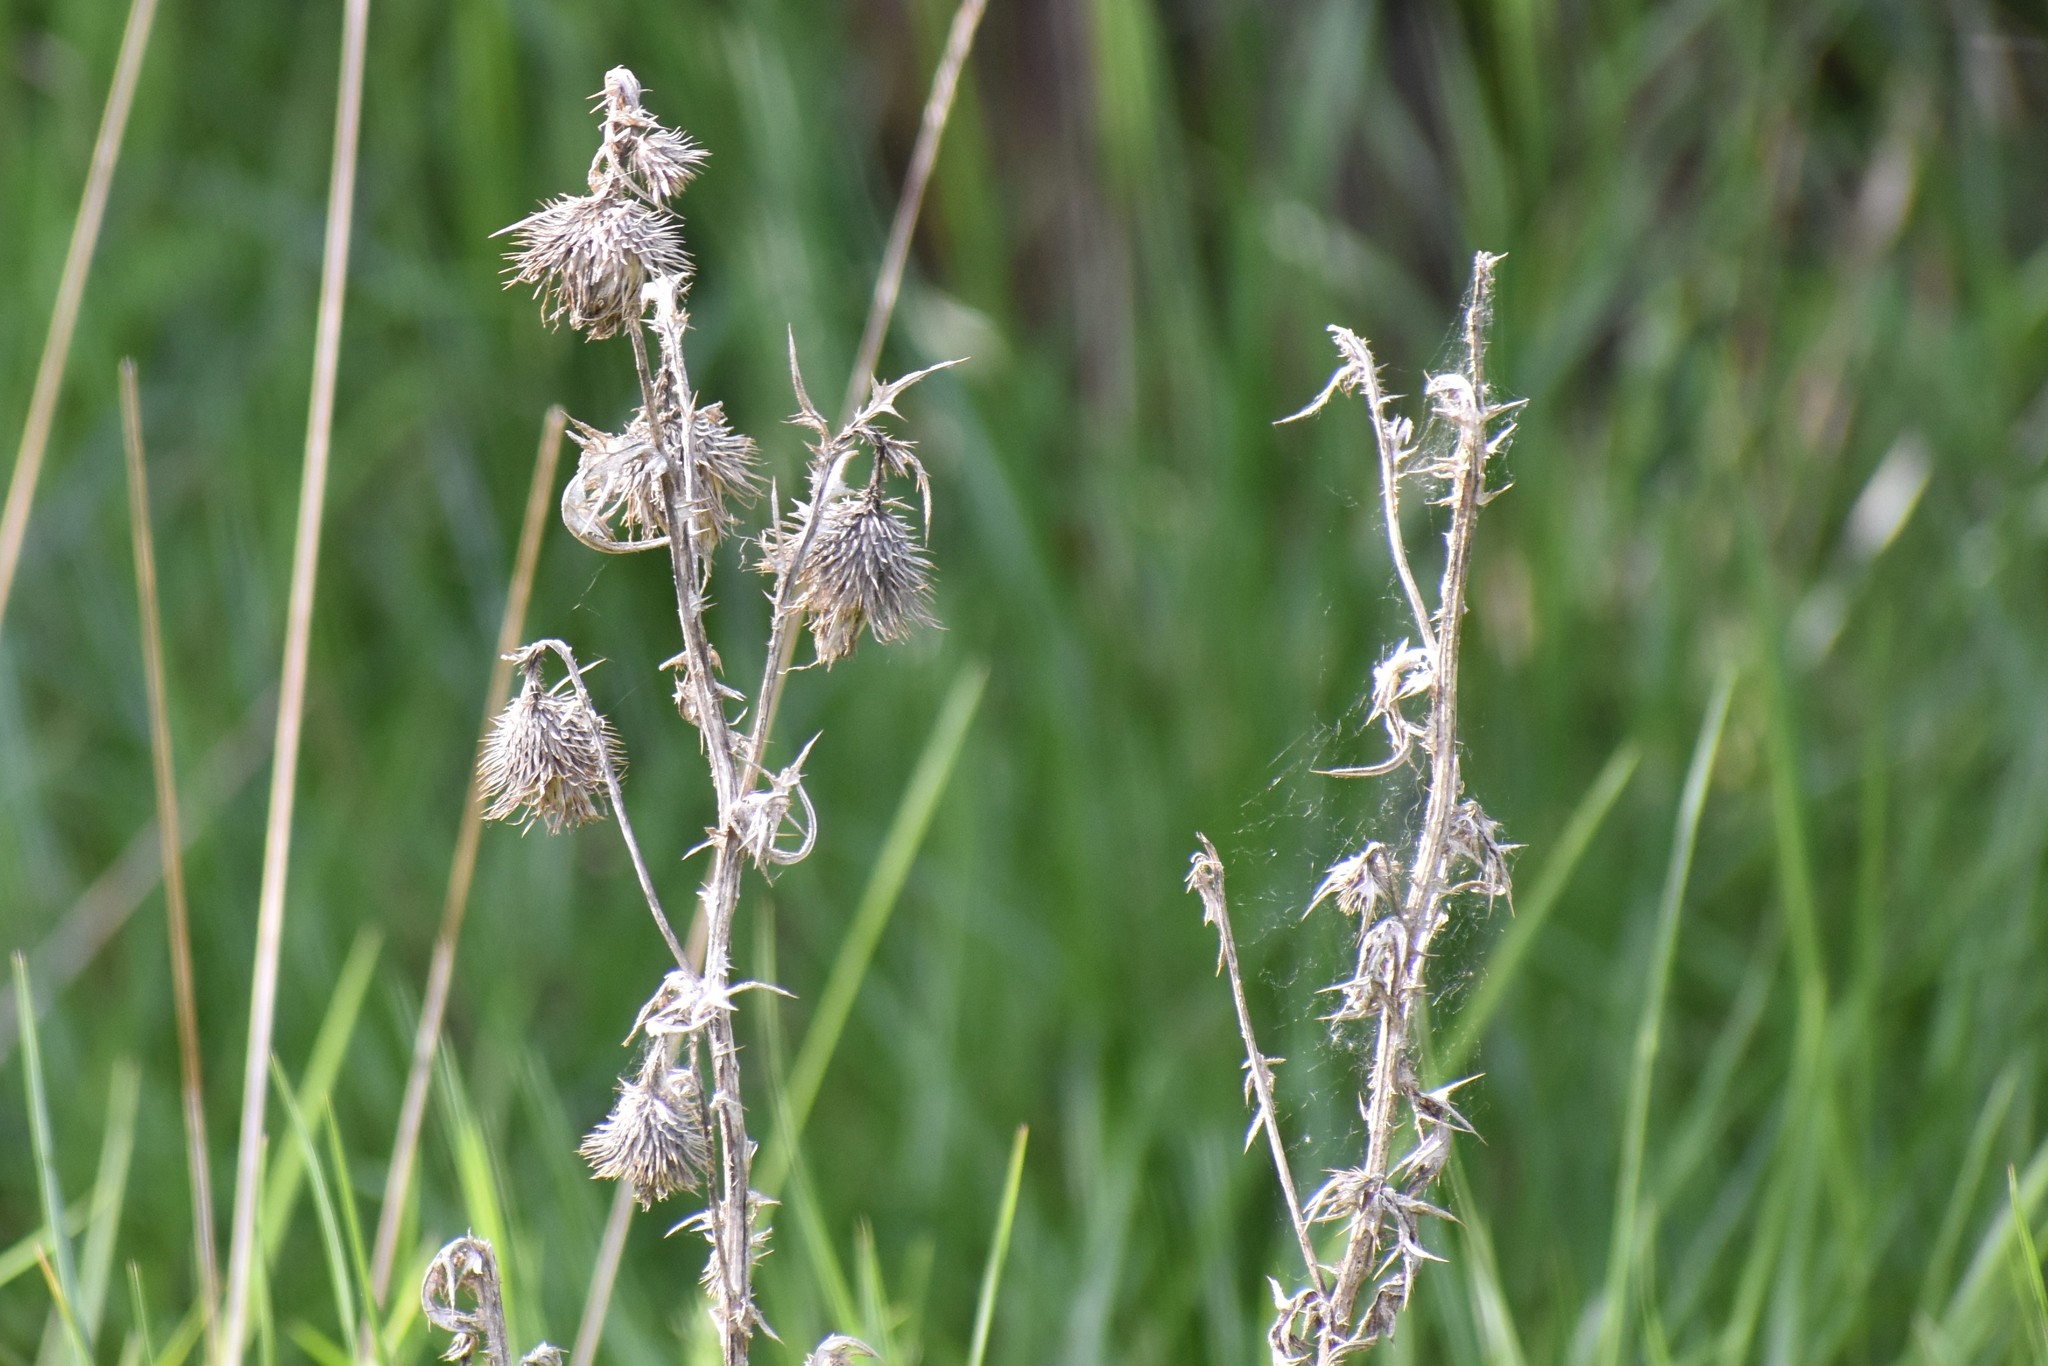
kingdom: Plantae
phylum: Tracheophyta
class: Magnoliopsida
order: Asterales
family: Asteraceae
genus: Cirsium
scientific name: Cirsium vulgare
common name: Bull thistle
